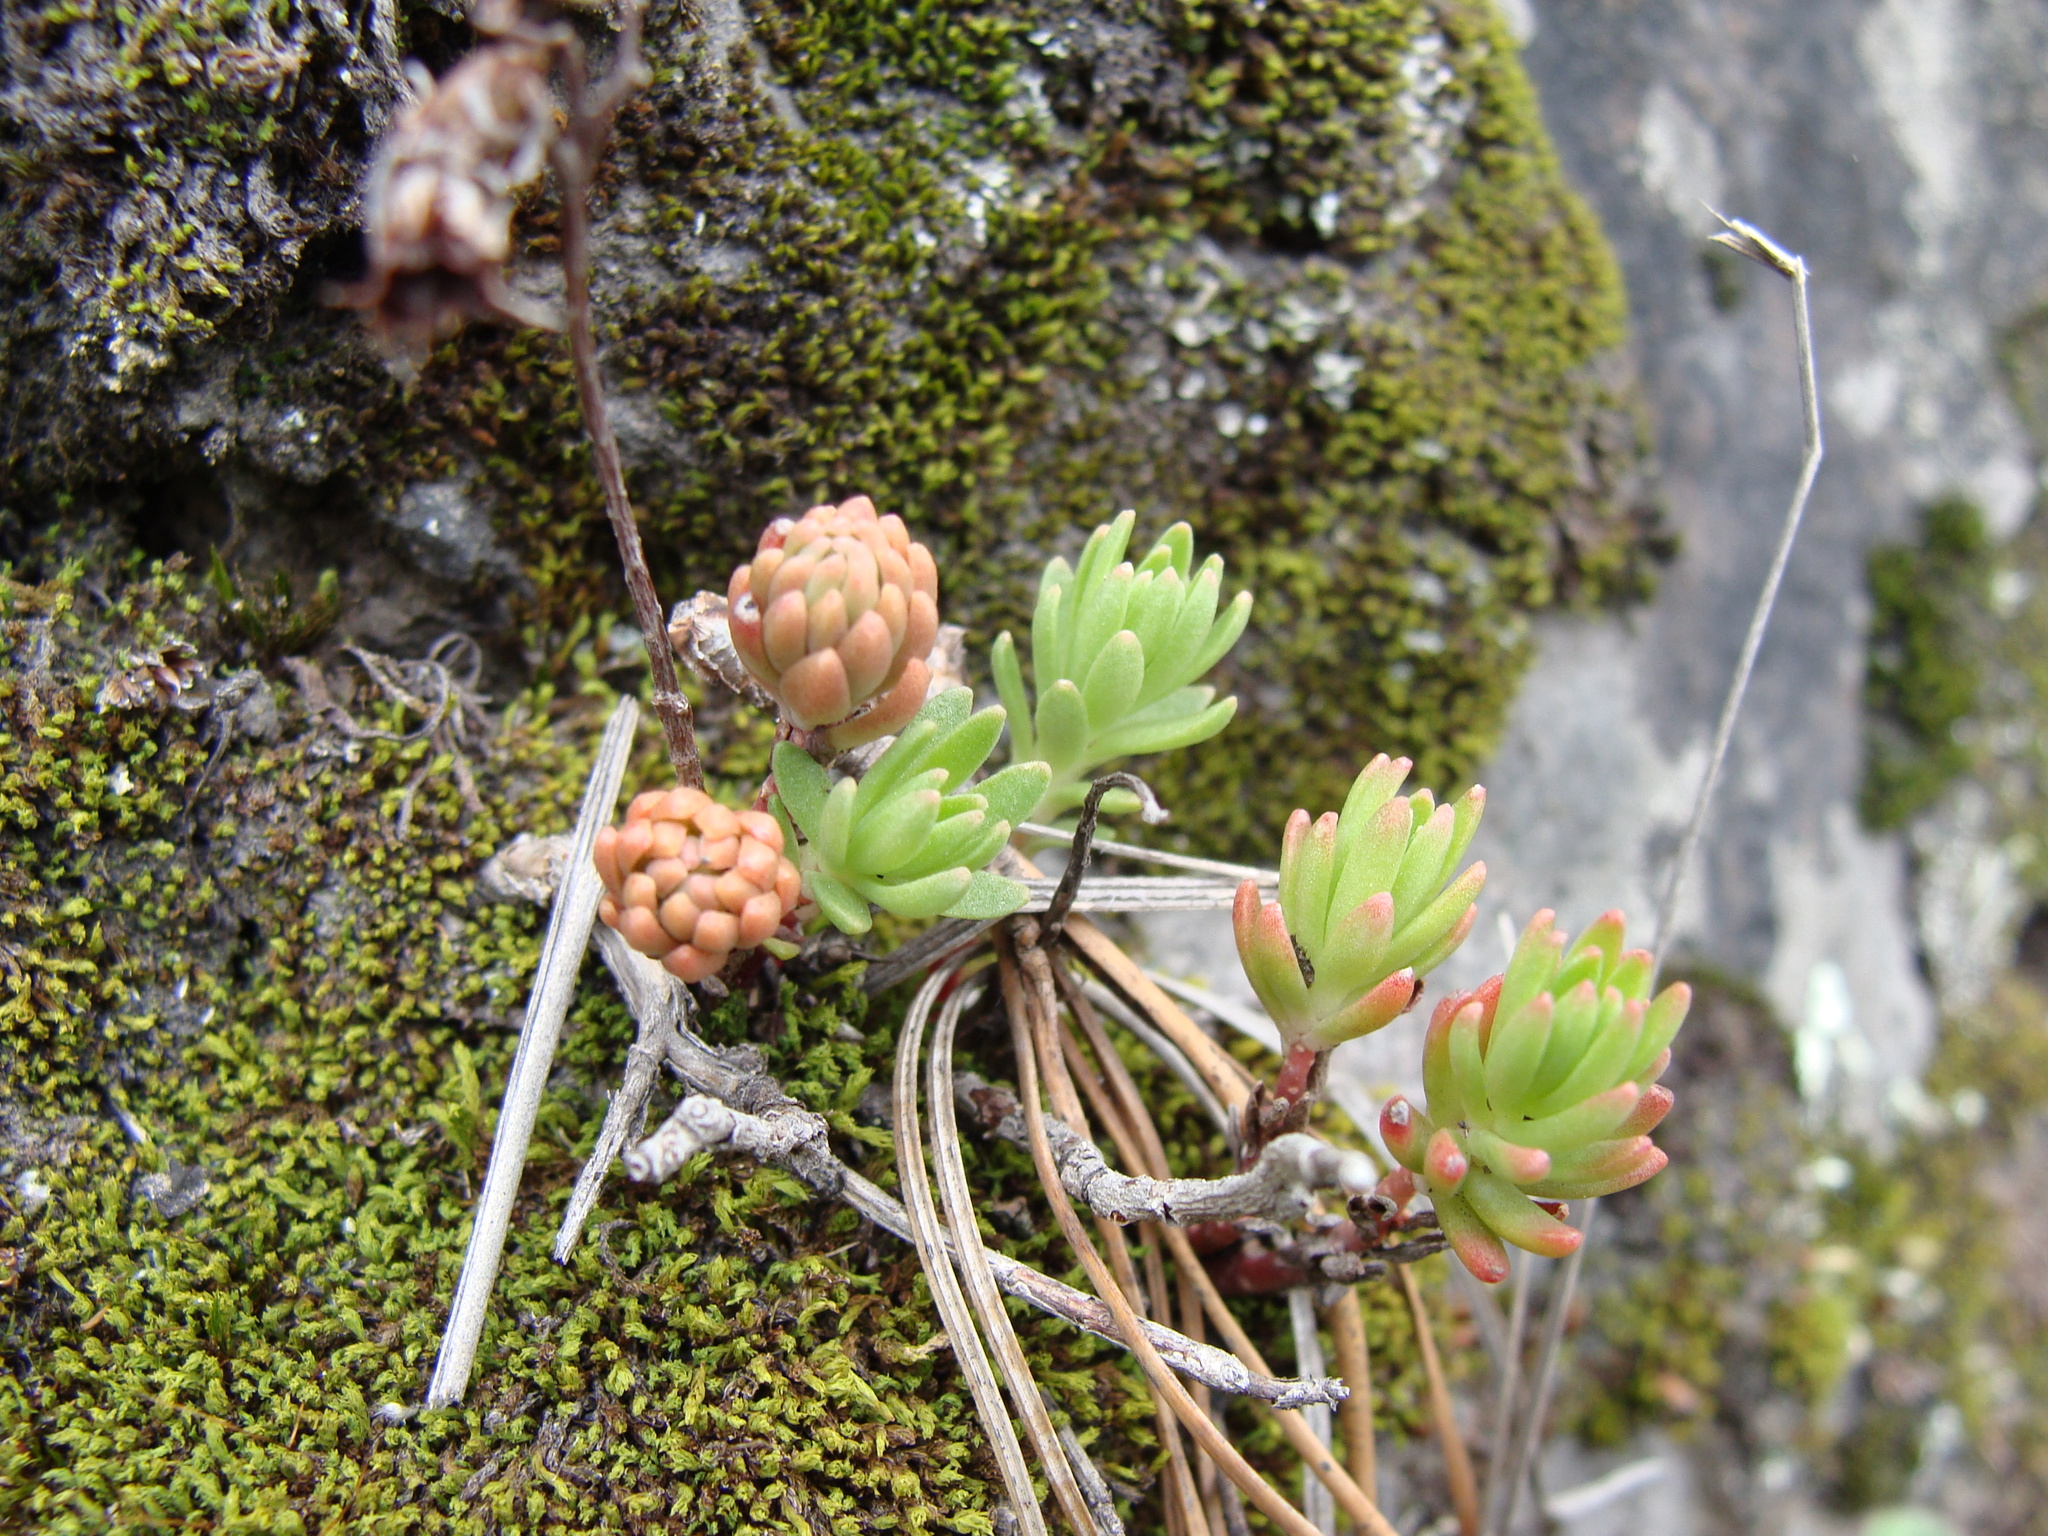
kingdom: Plantae
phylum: Tracheophyta
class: Magnoliopsida
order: Saxifragales
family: Crassulaceae
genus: Sedum
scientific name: Sedum goldmanii
